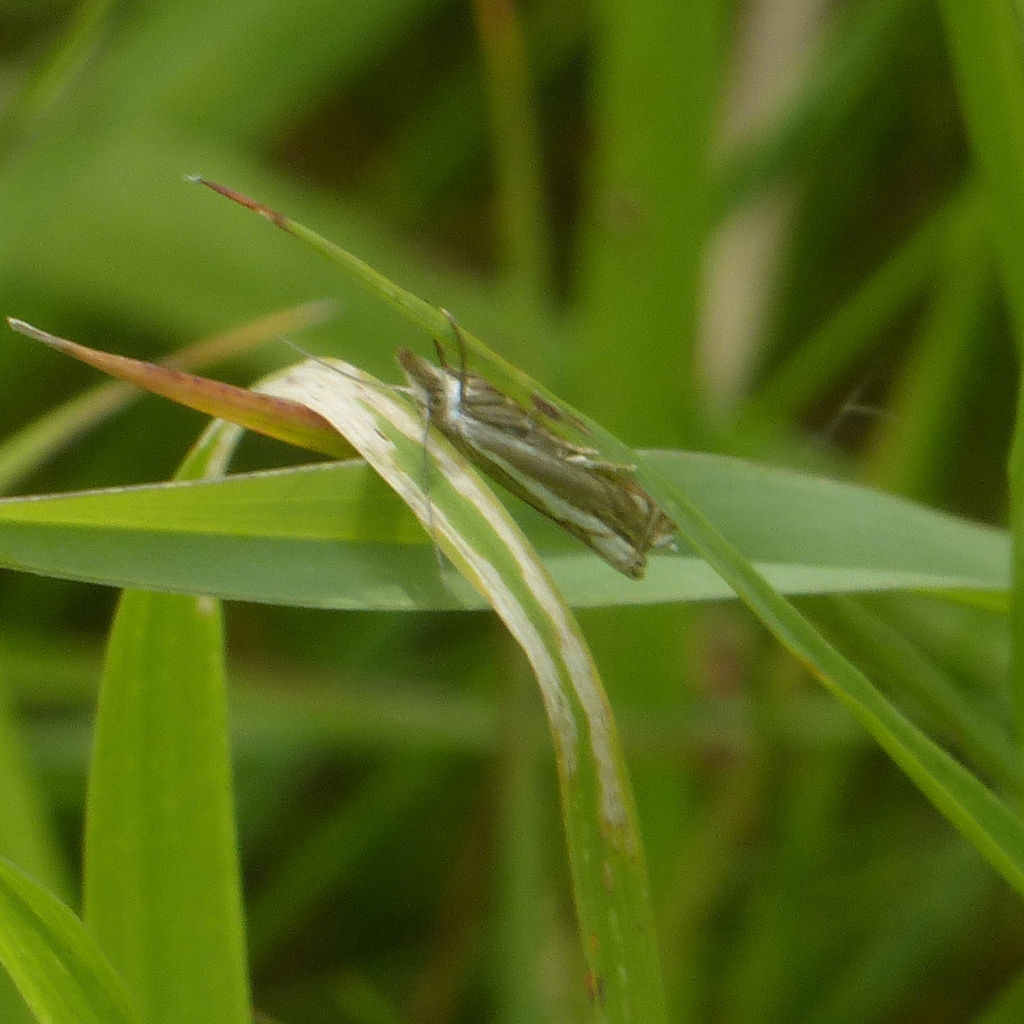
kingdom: Animalia
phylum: Arthropoda
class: Insecta
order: Lepidoptera
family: Crambidae
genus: Crambus
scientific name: Crambus nemorella
